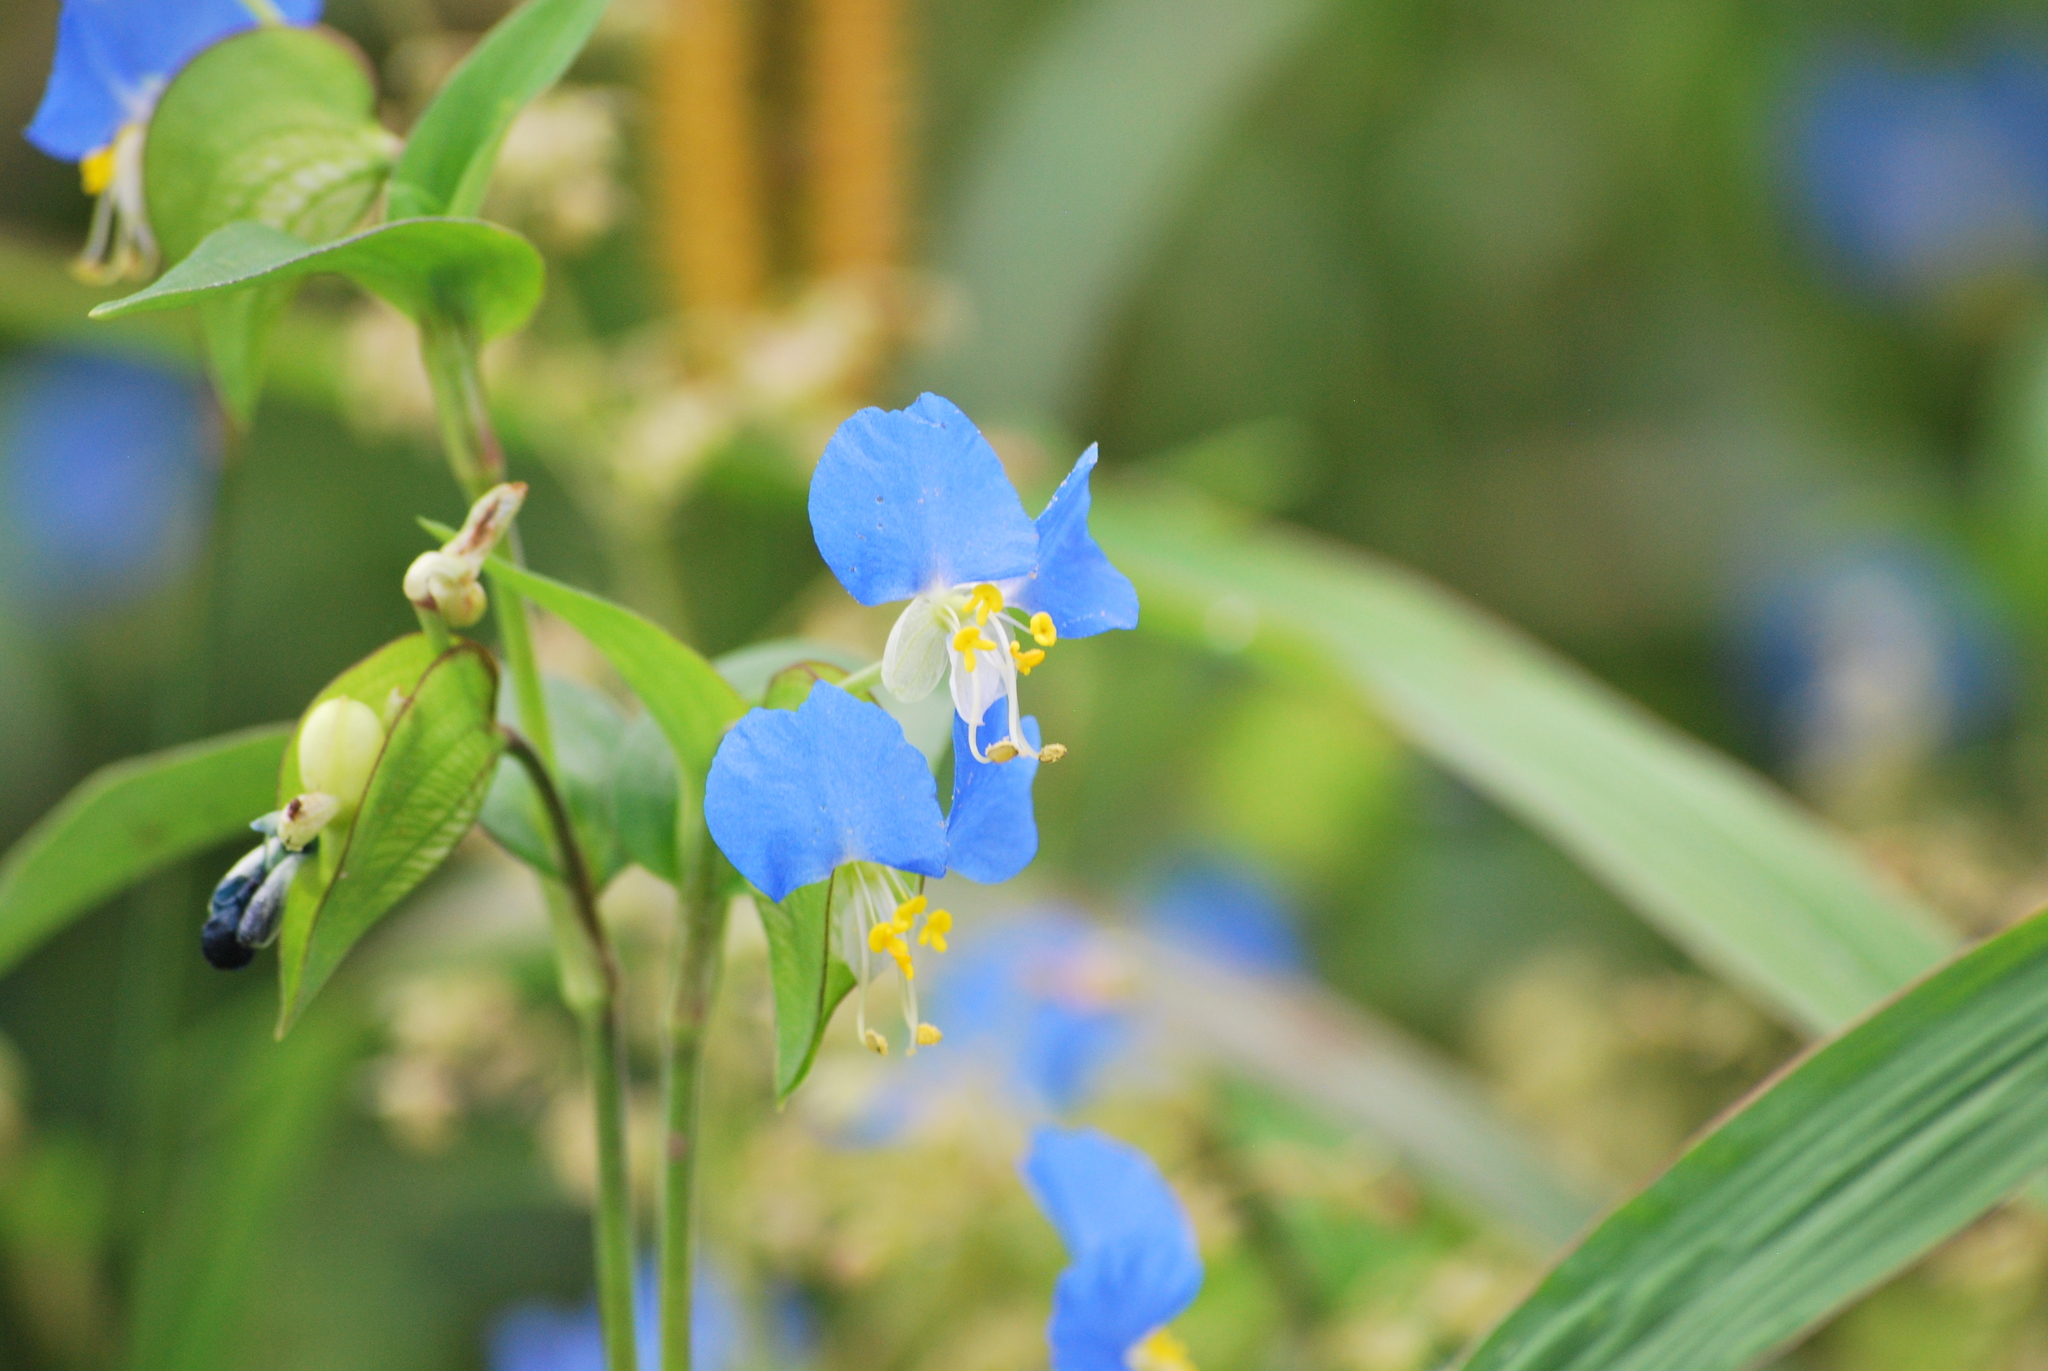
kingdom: Plantae
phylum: Tracheophyta
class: Liliopsida
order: Commelinales
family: Commelinaceae
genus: Commelina
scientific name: Commelina communis
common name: Asiatic dayflower
